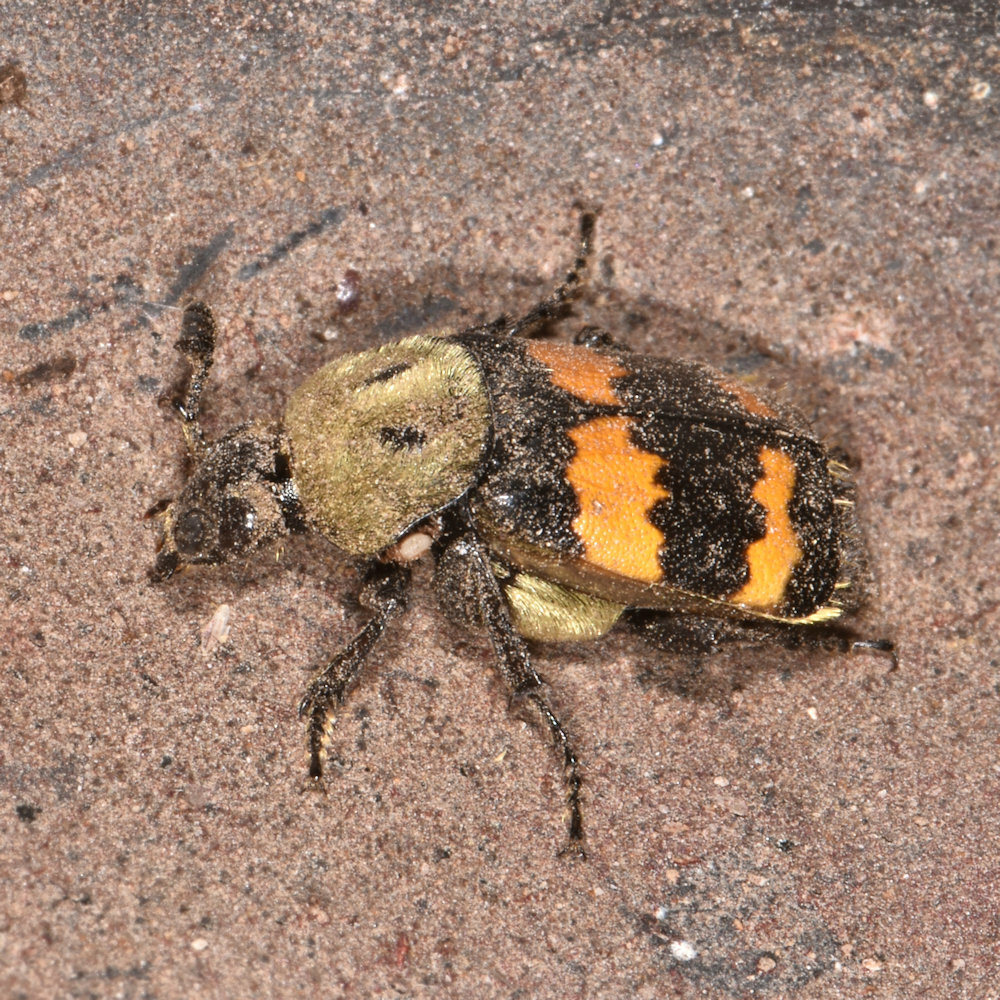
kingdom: Animalia
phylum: Arthropoda
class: Insecta
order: Coleoptera
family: Staphylinidae
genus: Nicrophorus
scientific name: Nicrophorus tomentosus
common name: Tomentose burying beetle
